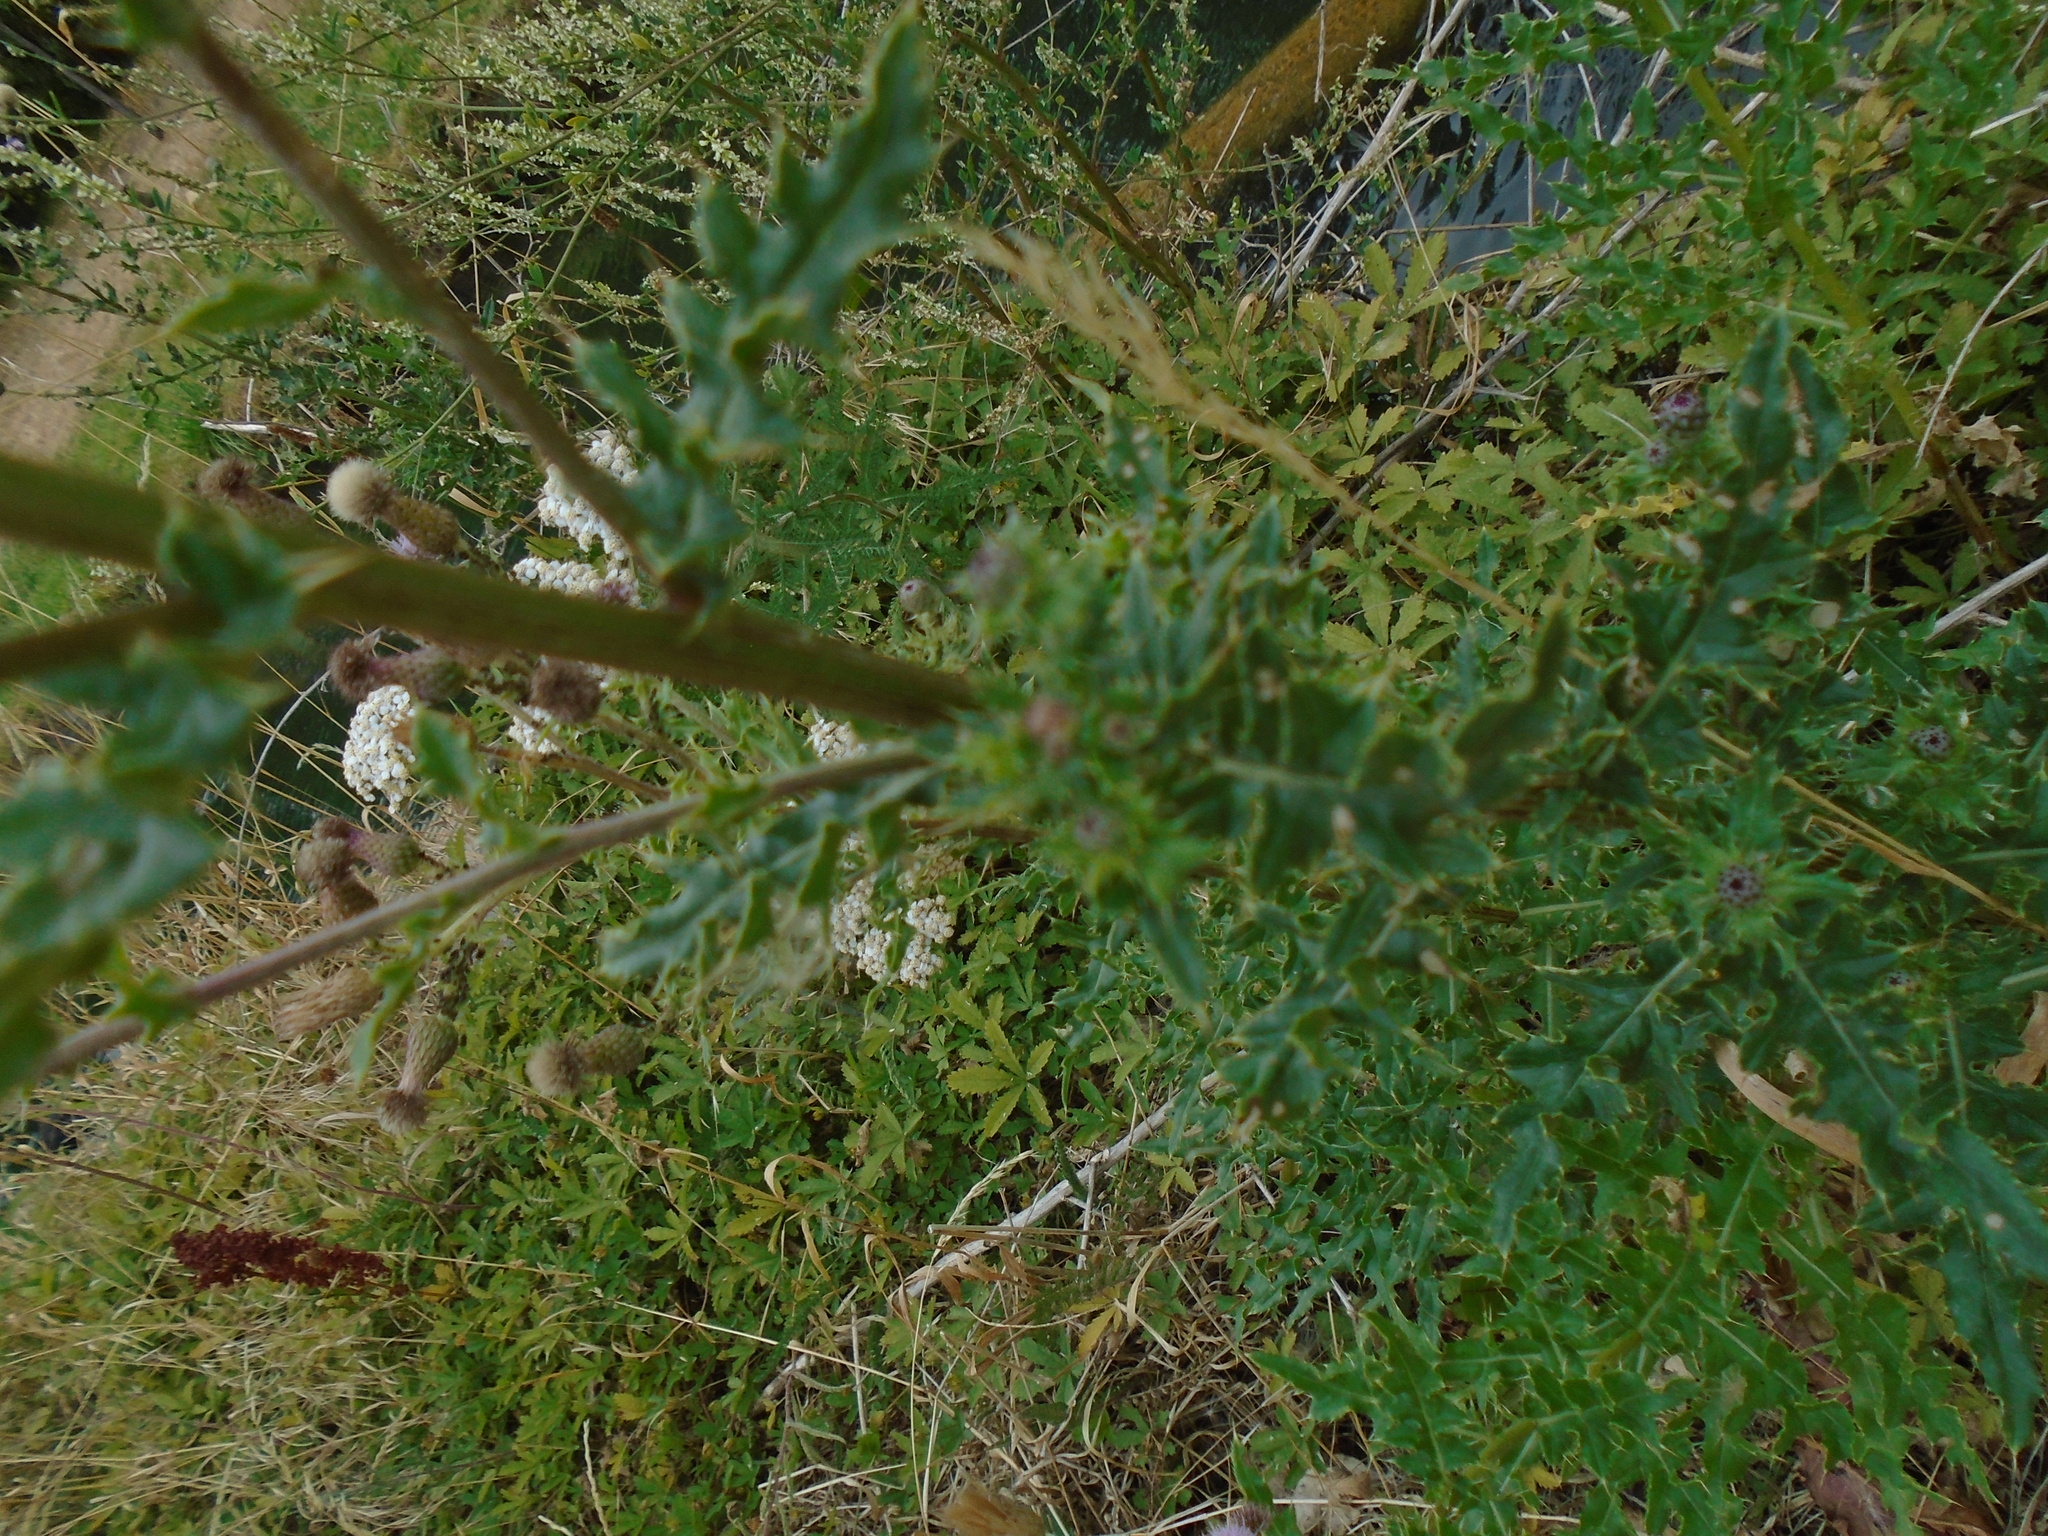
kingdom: Plantae
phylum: Tracheophyta
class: Magnoliopsida
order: Asterales
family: Asteraceae
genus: Cirsium
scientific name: Cirsium arvense
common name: Creeping thistle
